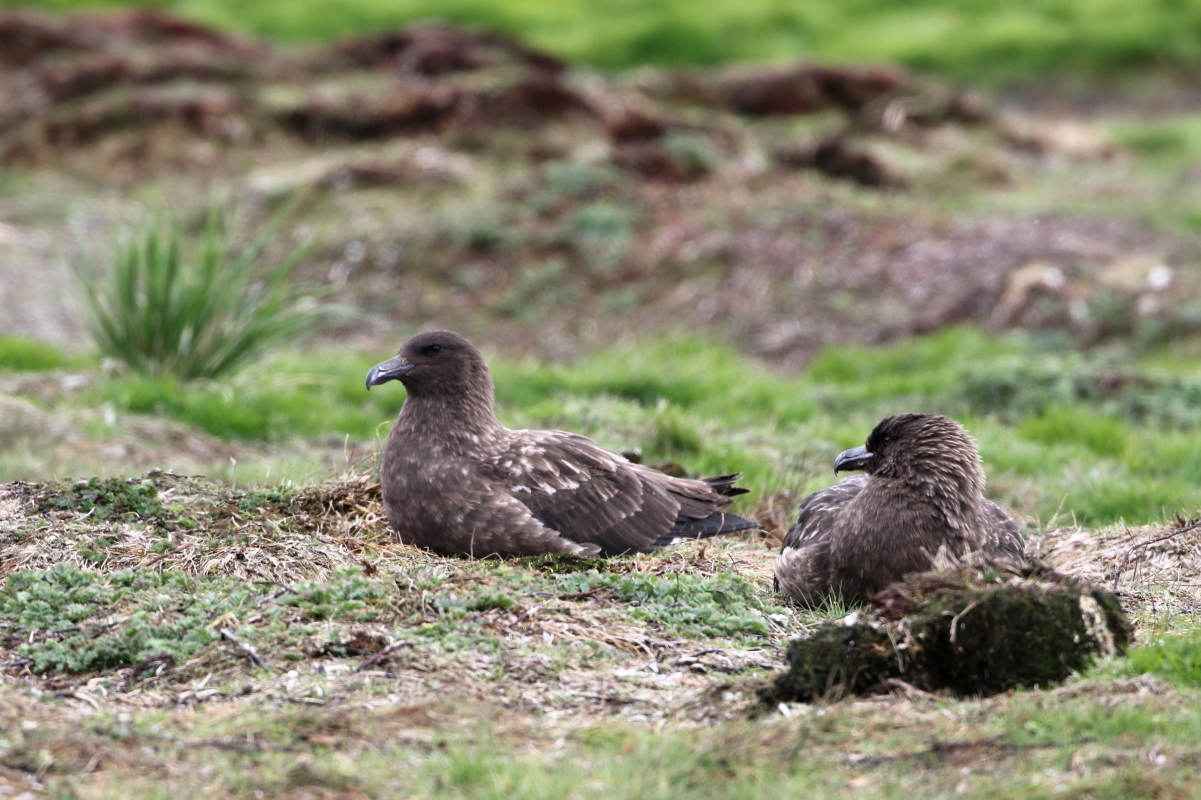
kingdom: Animalia
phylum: Chordata
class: Aves
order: Charadriiformes
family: Stercorariidae
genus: Stercorarius
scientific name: Stercorarius antarcticus
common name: Brown skua
